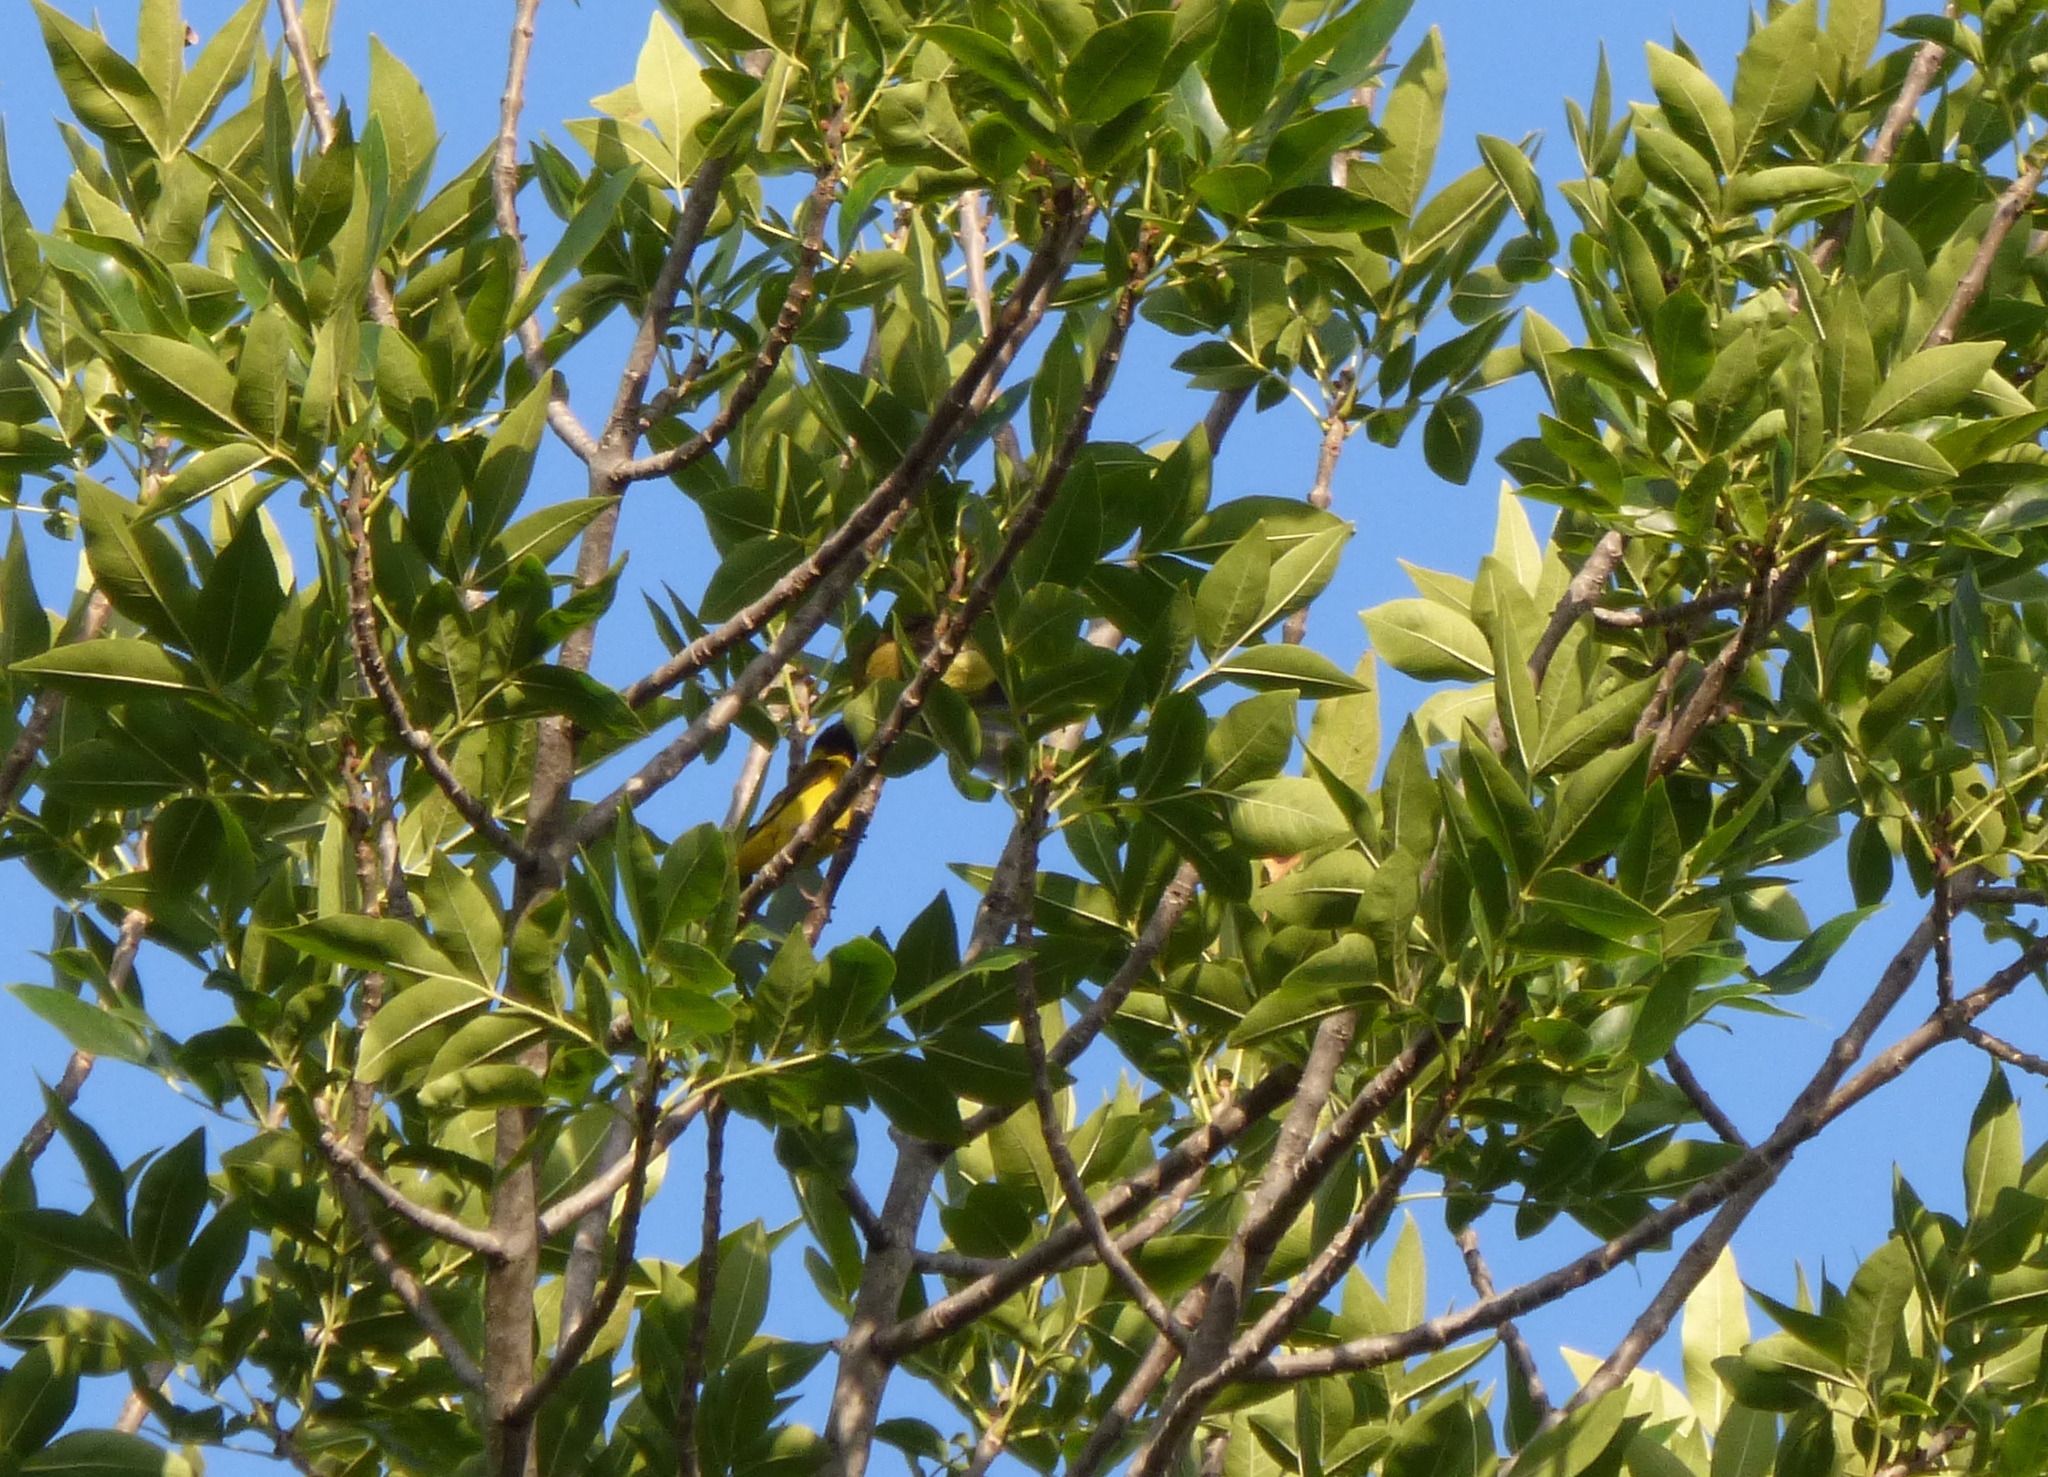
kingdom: Animalia
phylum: Chordata
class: Aves
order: Passeriformes
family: Fringillidae
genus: Spinus
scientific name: Spinus magellanicus
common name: Hooded siskin
